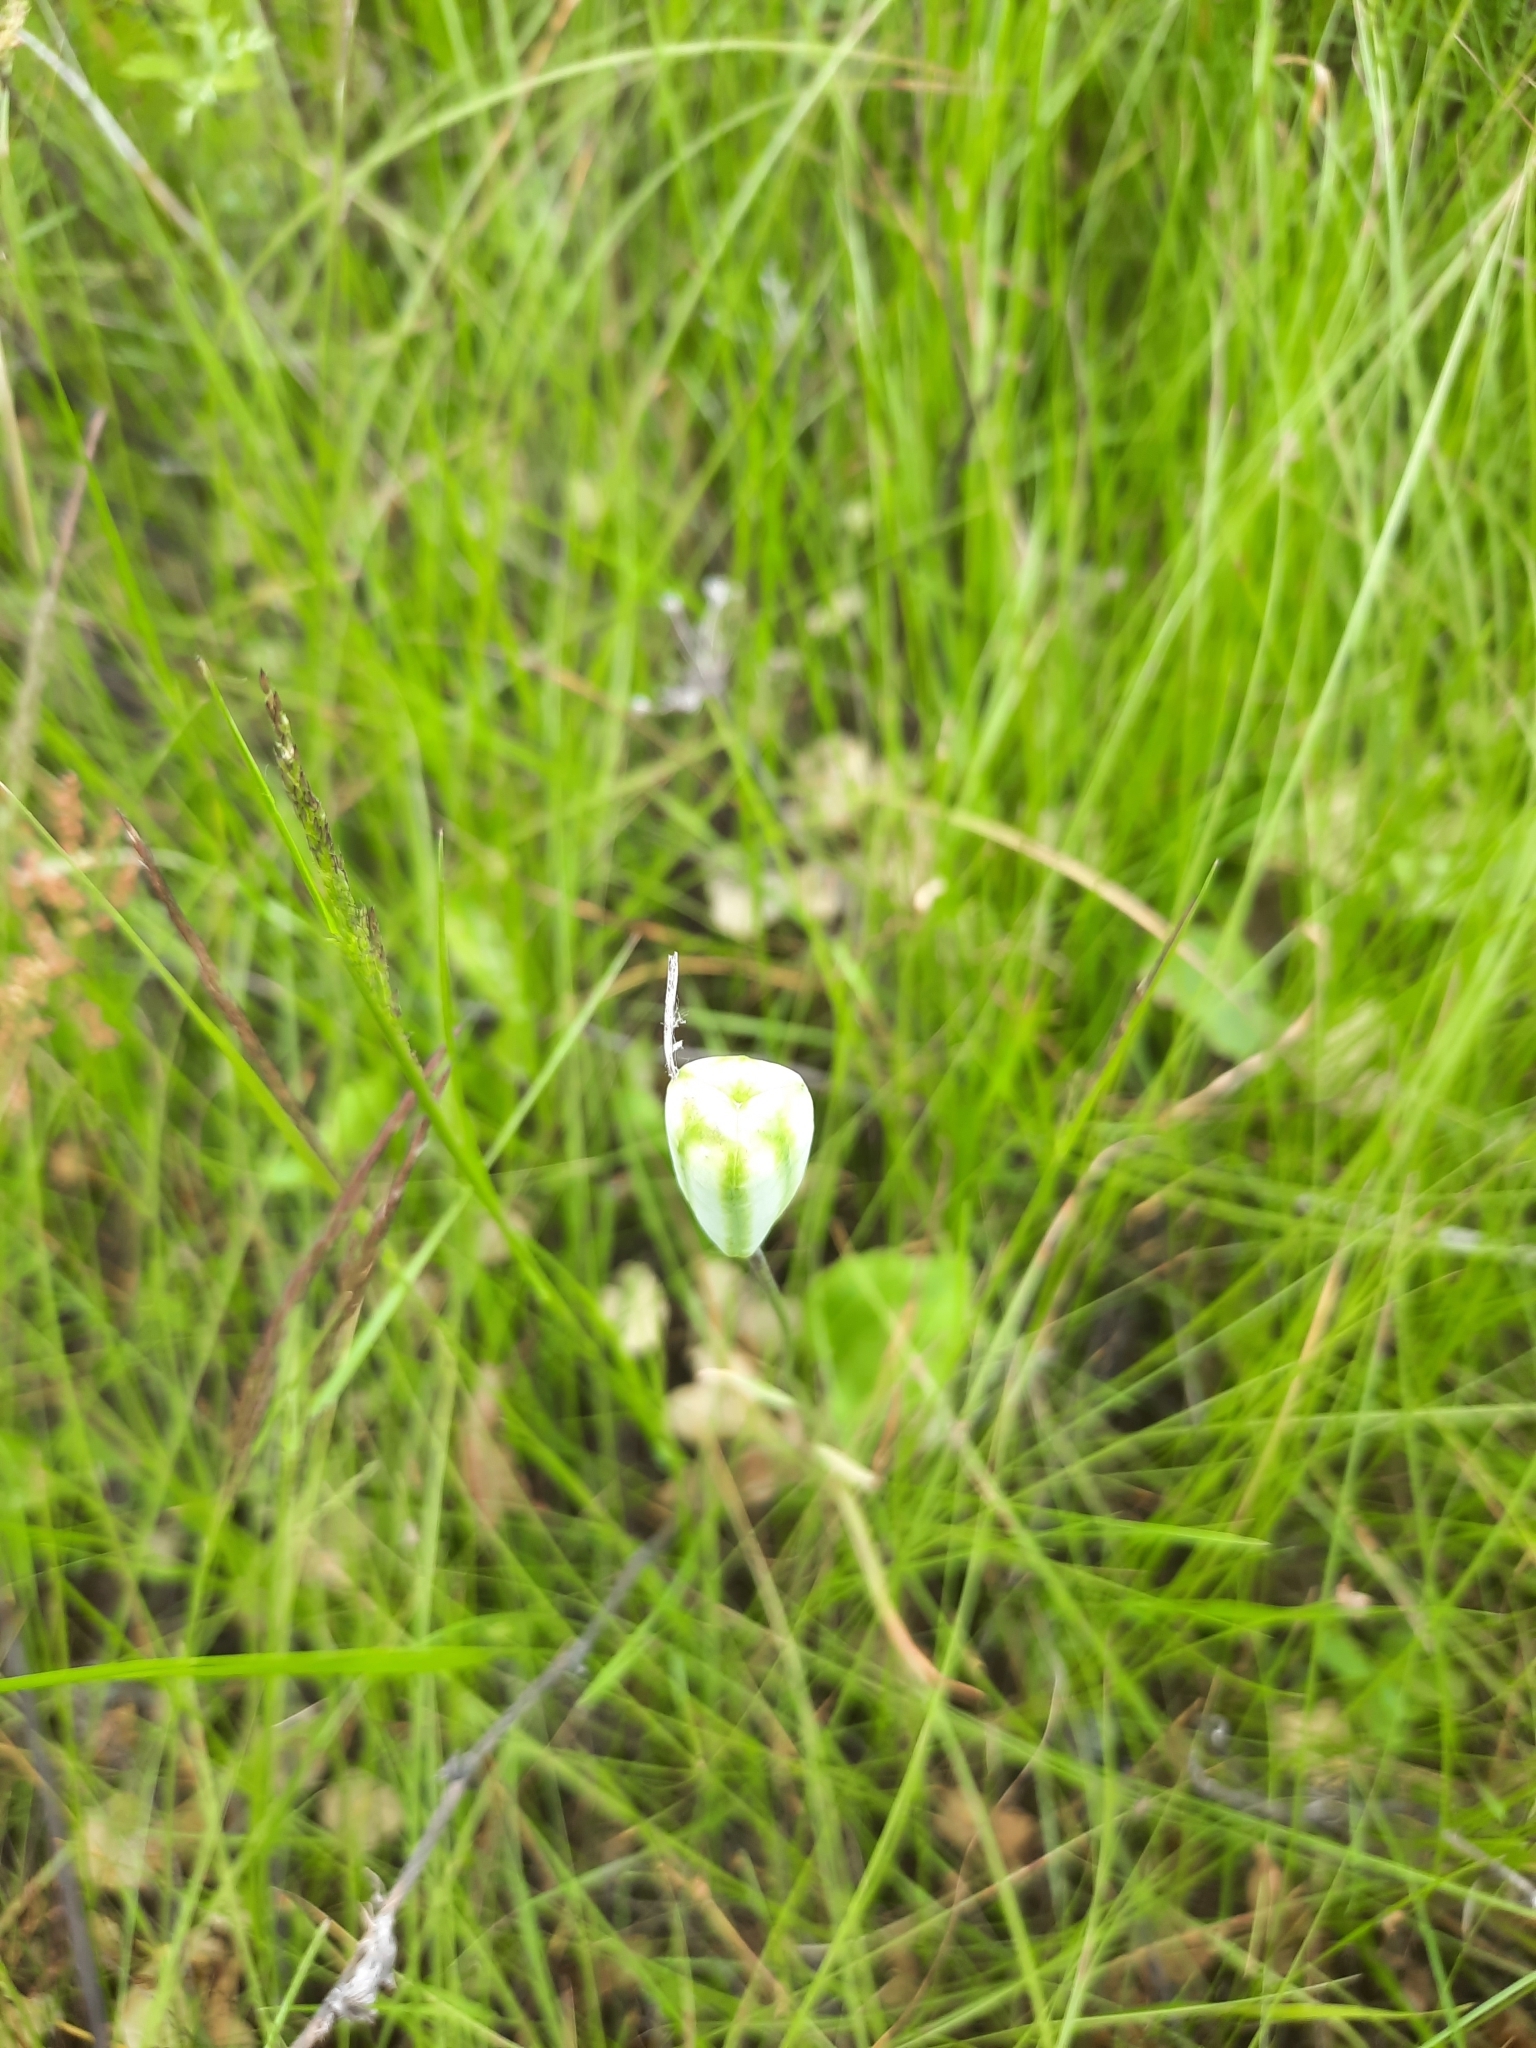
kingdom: Plantae
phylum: Tracheophyta
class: Liliopsida
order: Liliales
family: Liliaceae
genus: Fritillaria
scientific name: Fritillaria meleagroides
